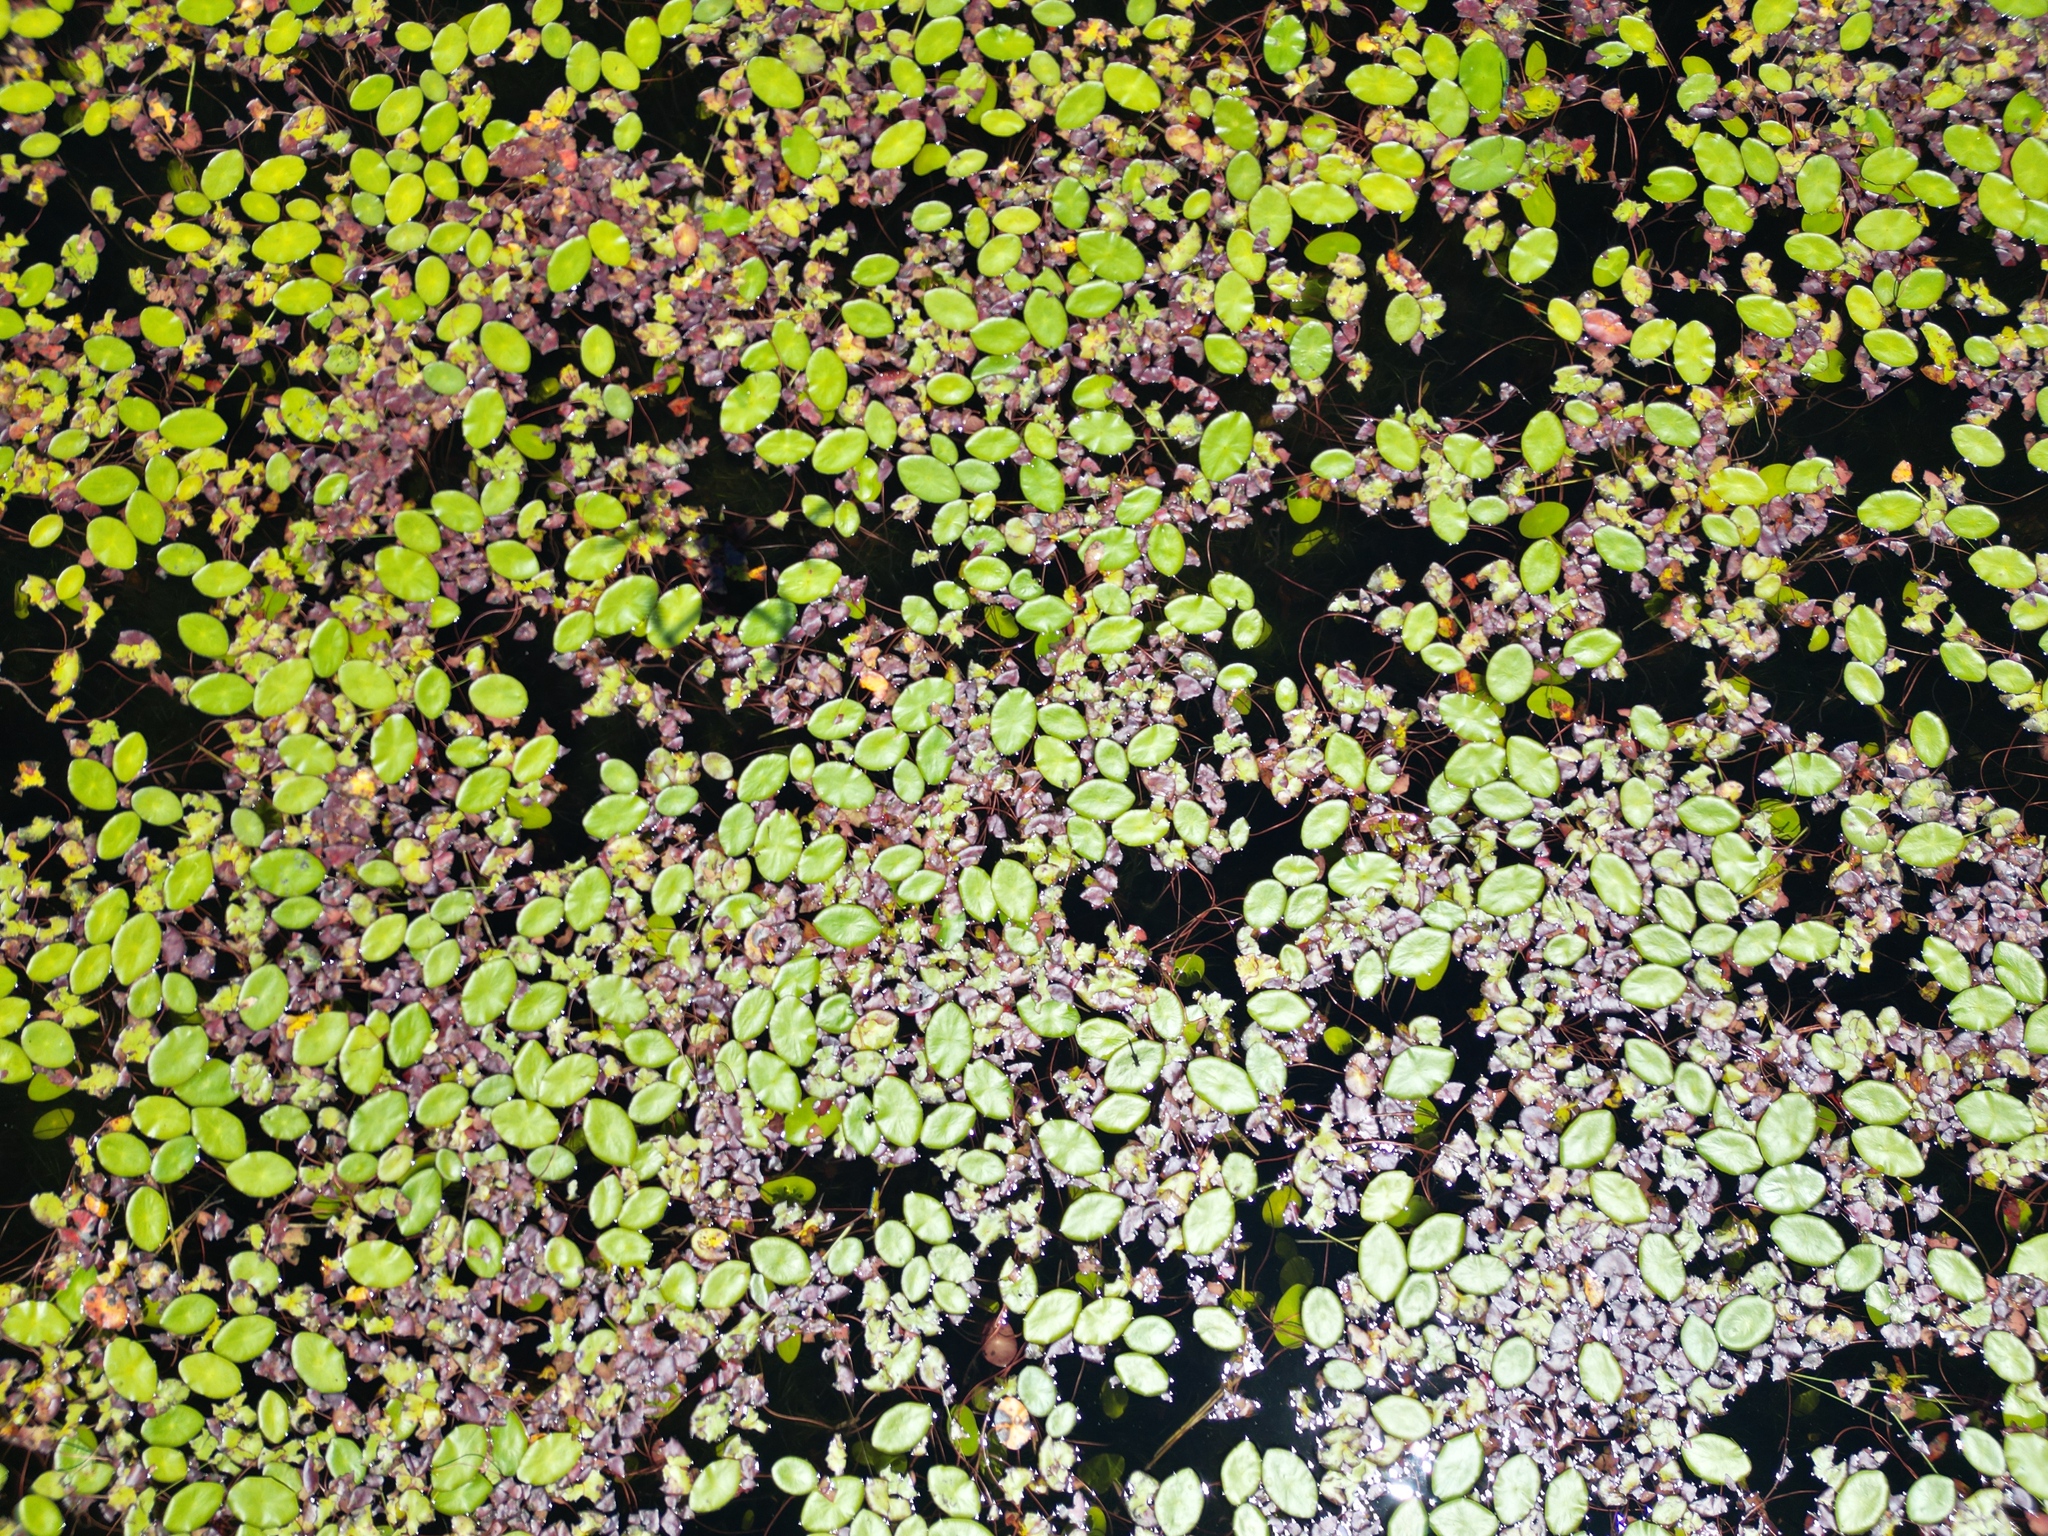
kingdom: Plantae
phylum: Tracheophyta
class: Magnoliopsida
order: Nymphaeales
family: Cabombaceae
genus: Brasenia
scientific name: Brasenia schreberi
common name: Water-shield
